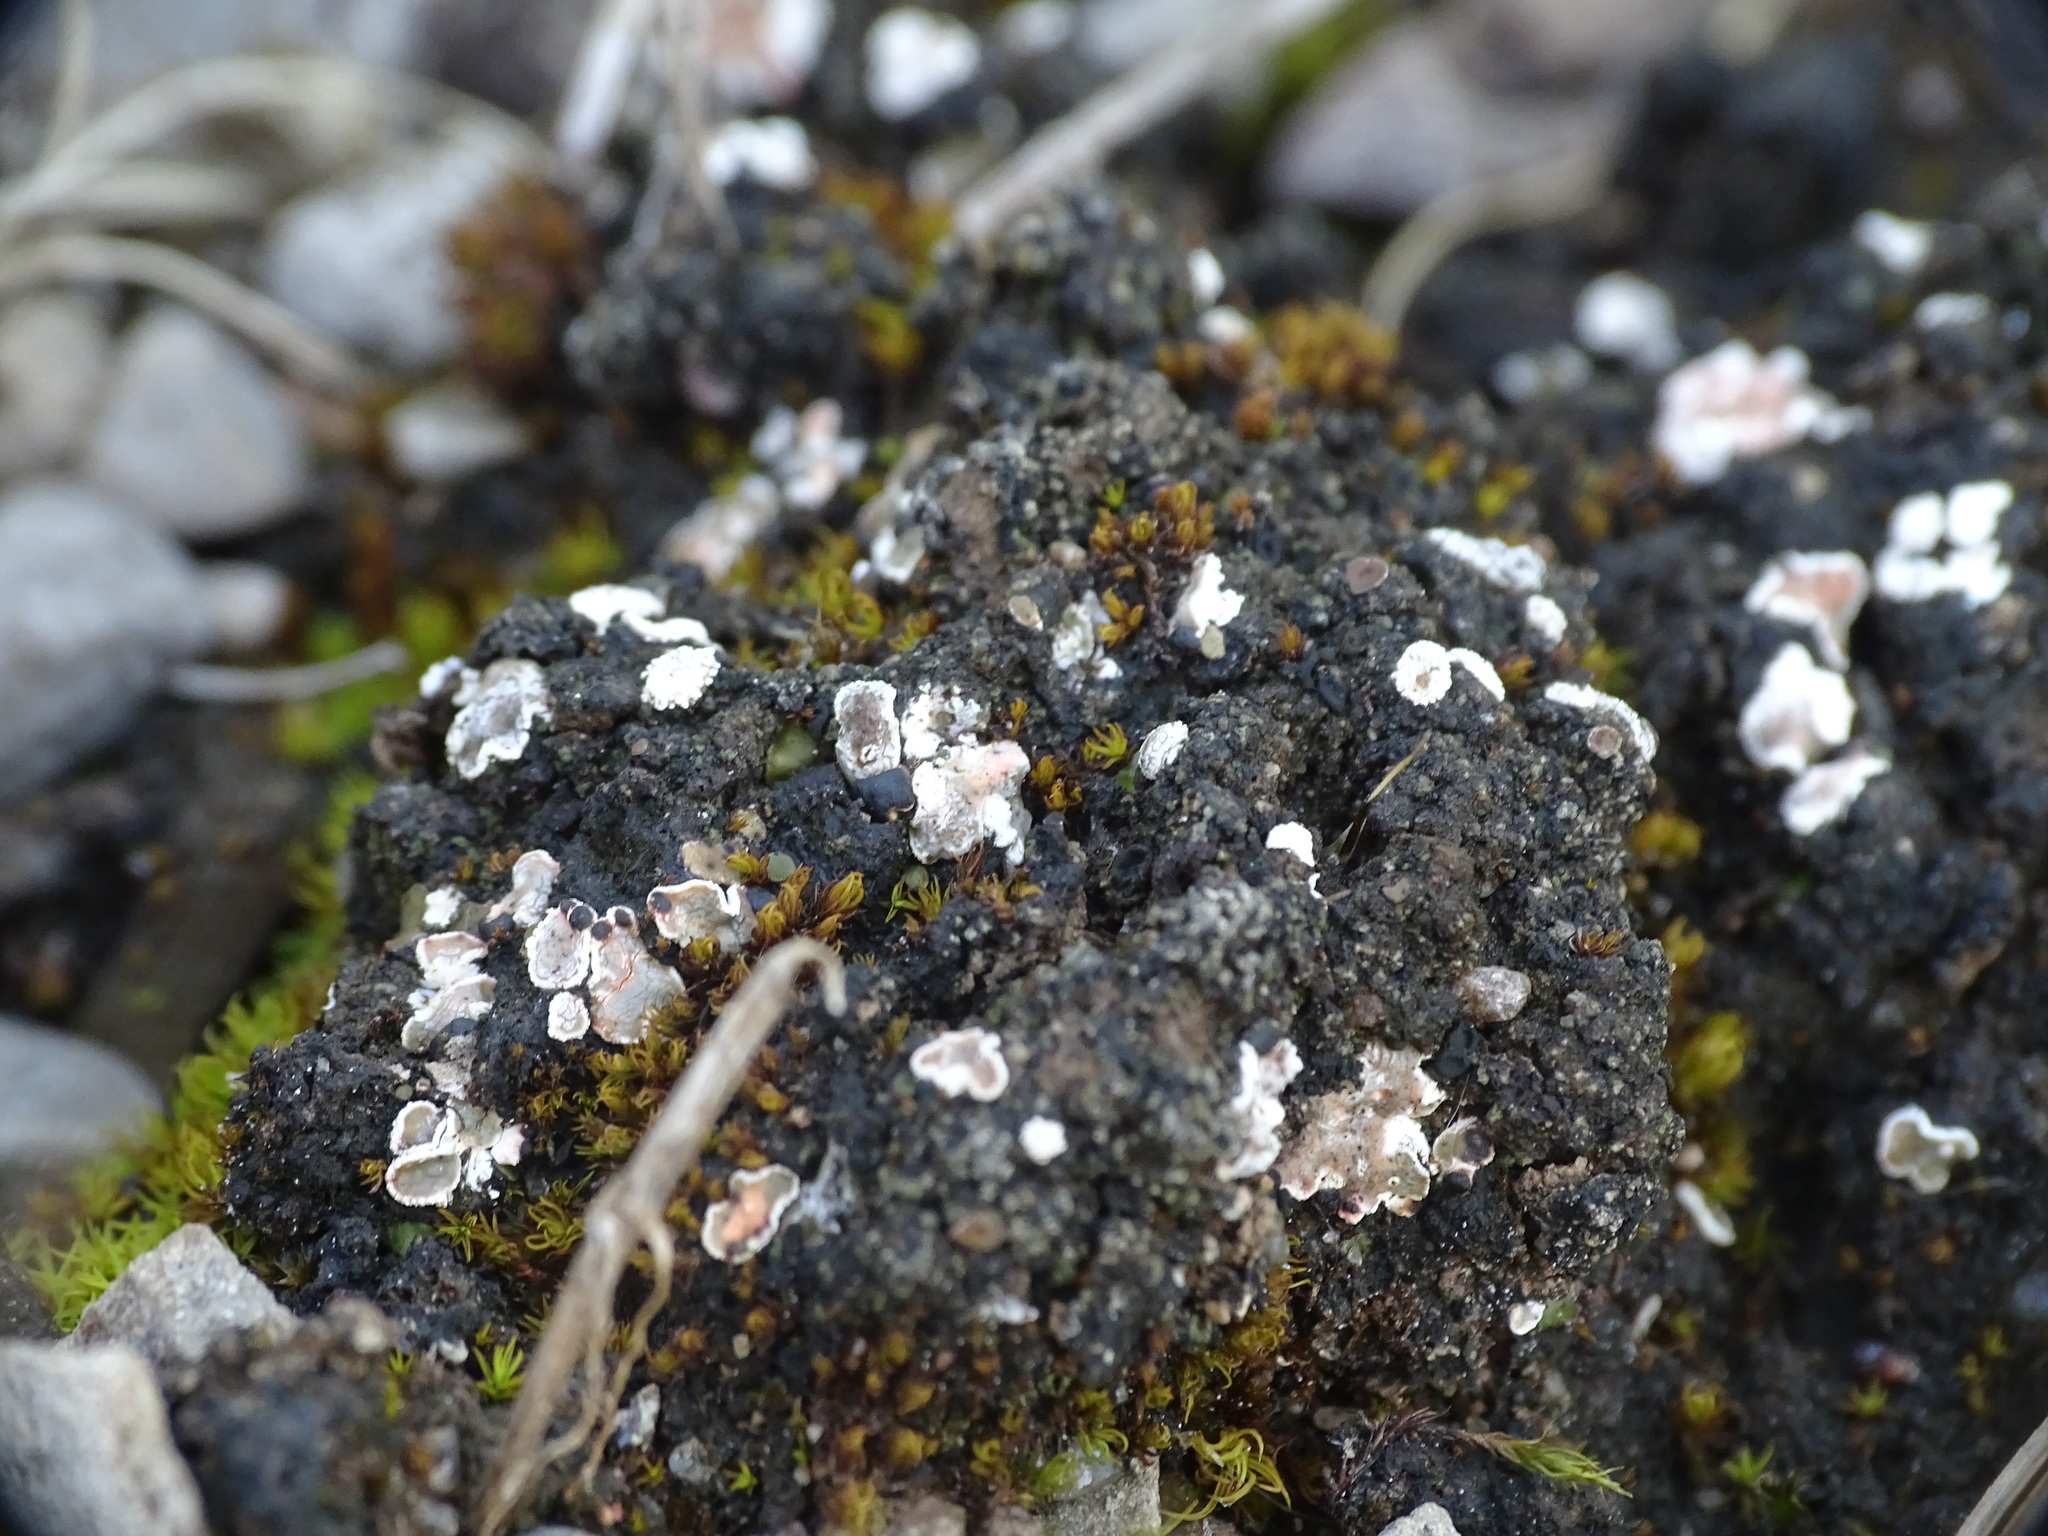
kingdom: Fungi
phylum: Ascomycota
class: Lecanoromycetes
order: Lecanorales
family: Psoraceae
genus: Psora
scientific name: Psora decipiens
